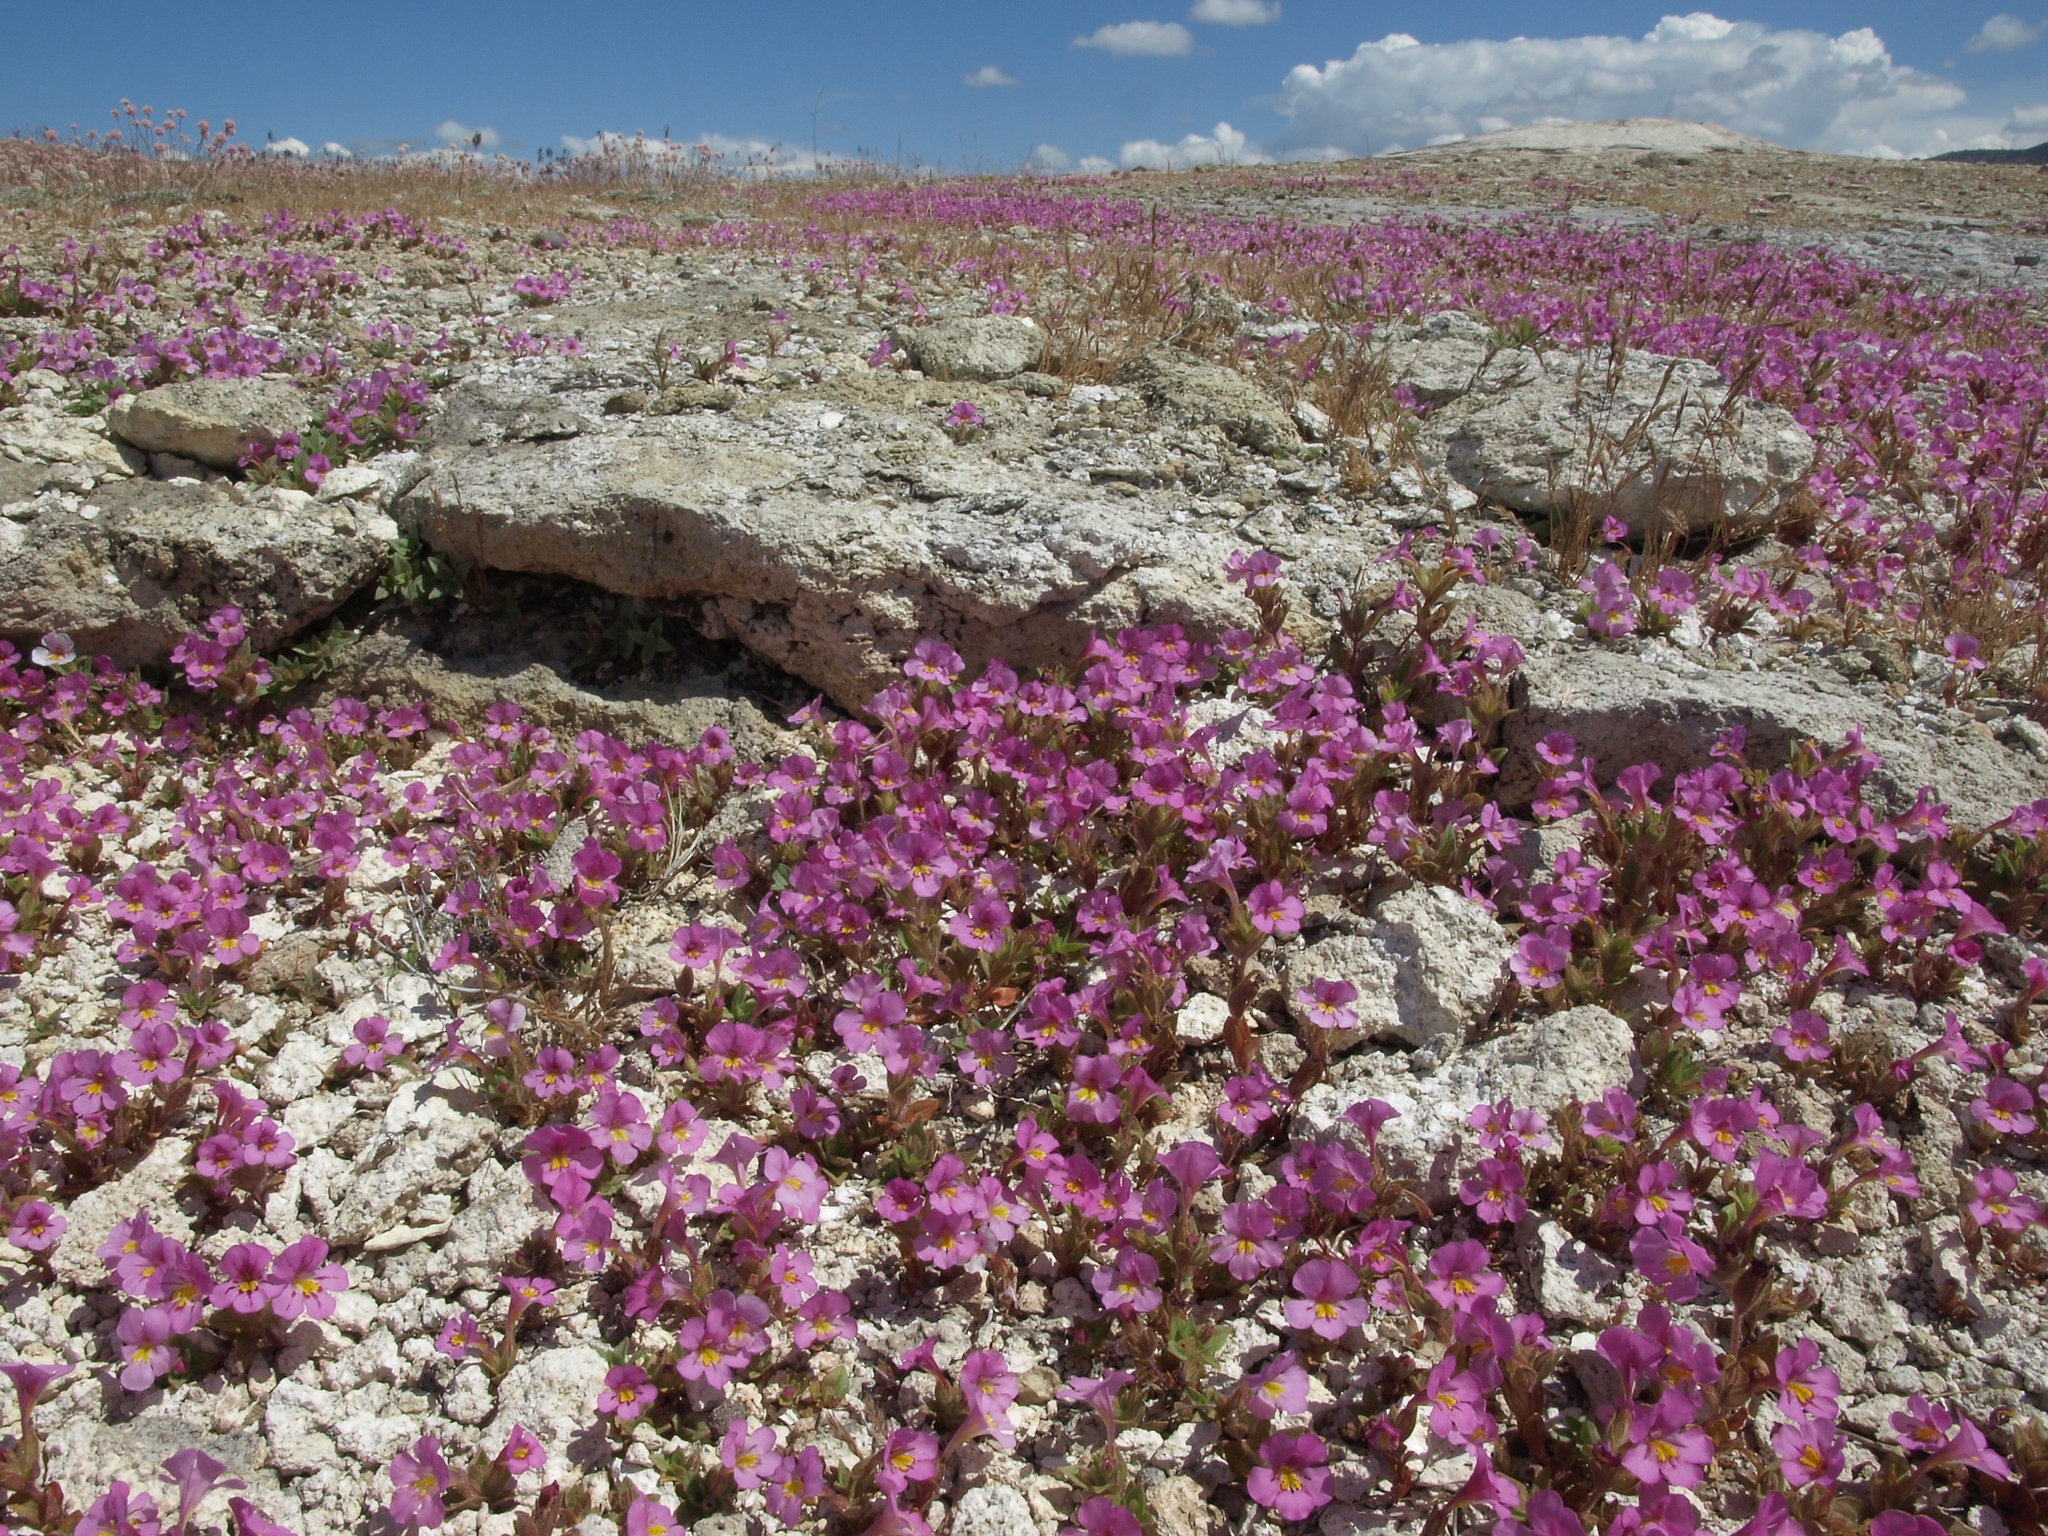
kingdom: Plantae
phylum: Tracheophyta
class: Magnoliopsida
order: Lamiales
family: Phrymaceae
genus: Diplacus
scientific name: Diplacus ovatus
